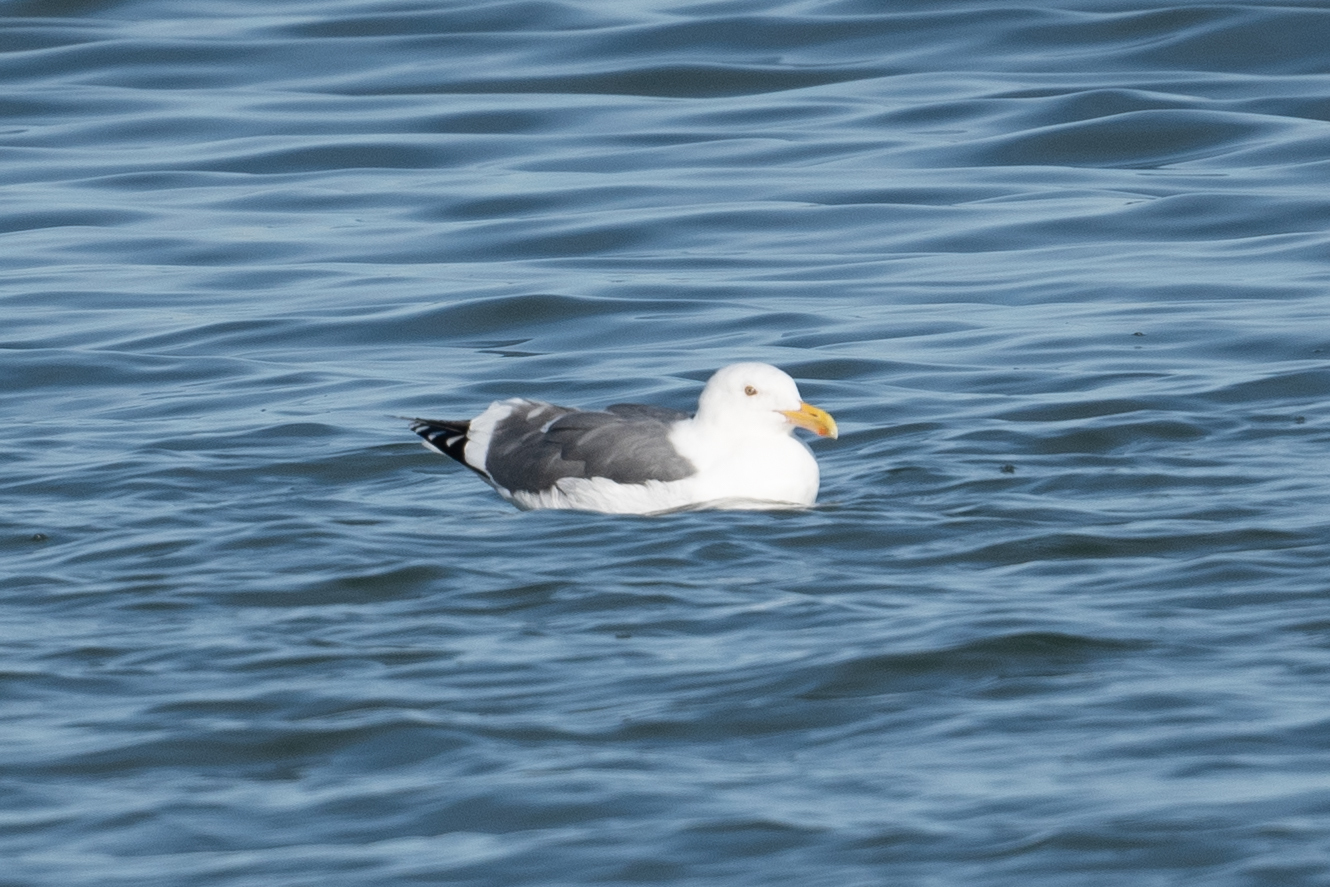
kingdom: Animalia
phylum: Chordata
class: Aves
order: Charadriiformes
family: Laridae
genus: Larus
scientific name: Larus occidentalis
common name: Western gull
